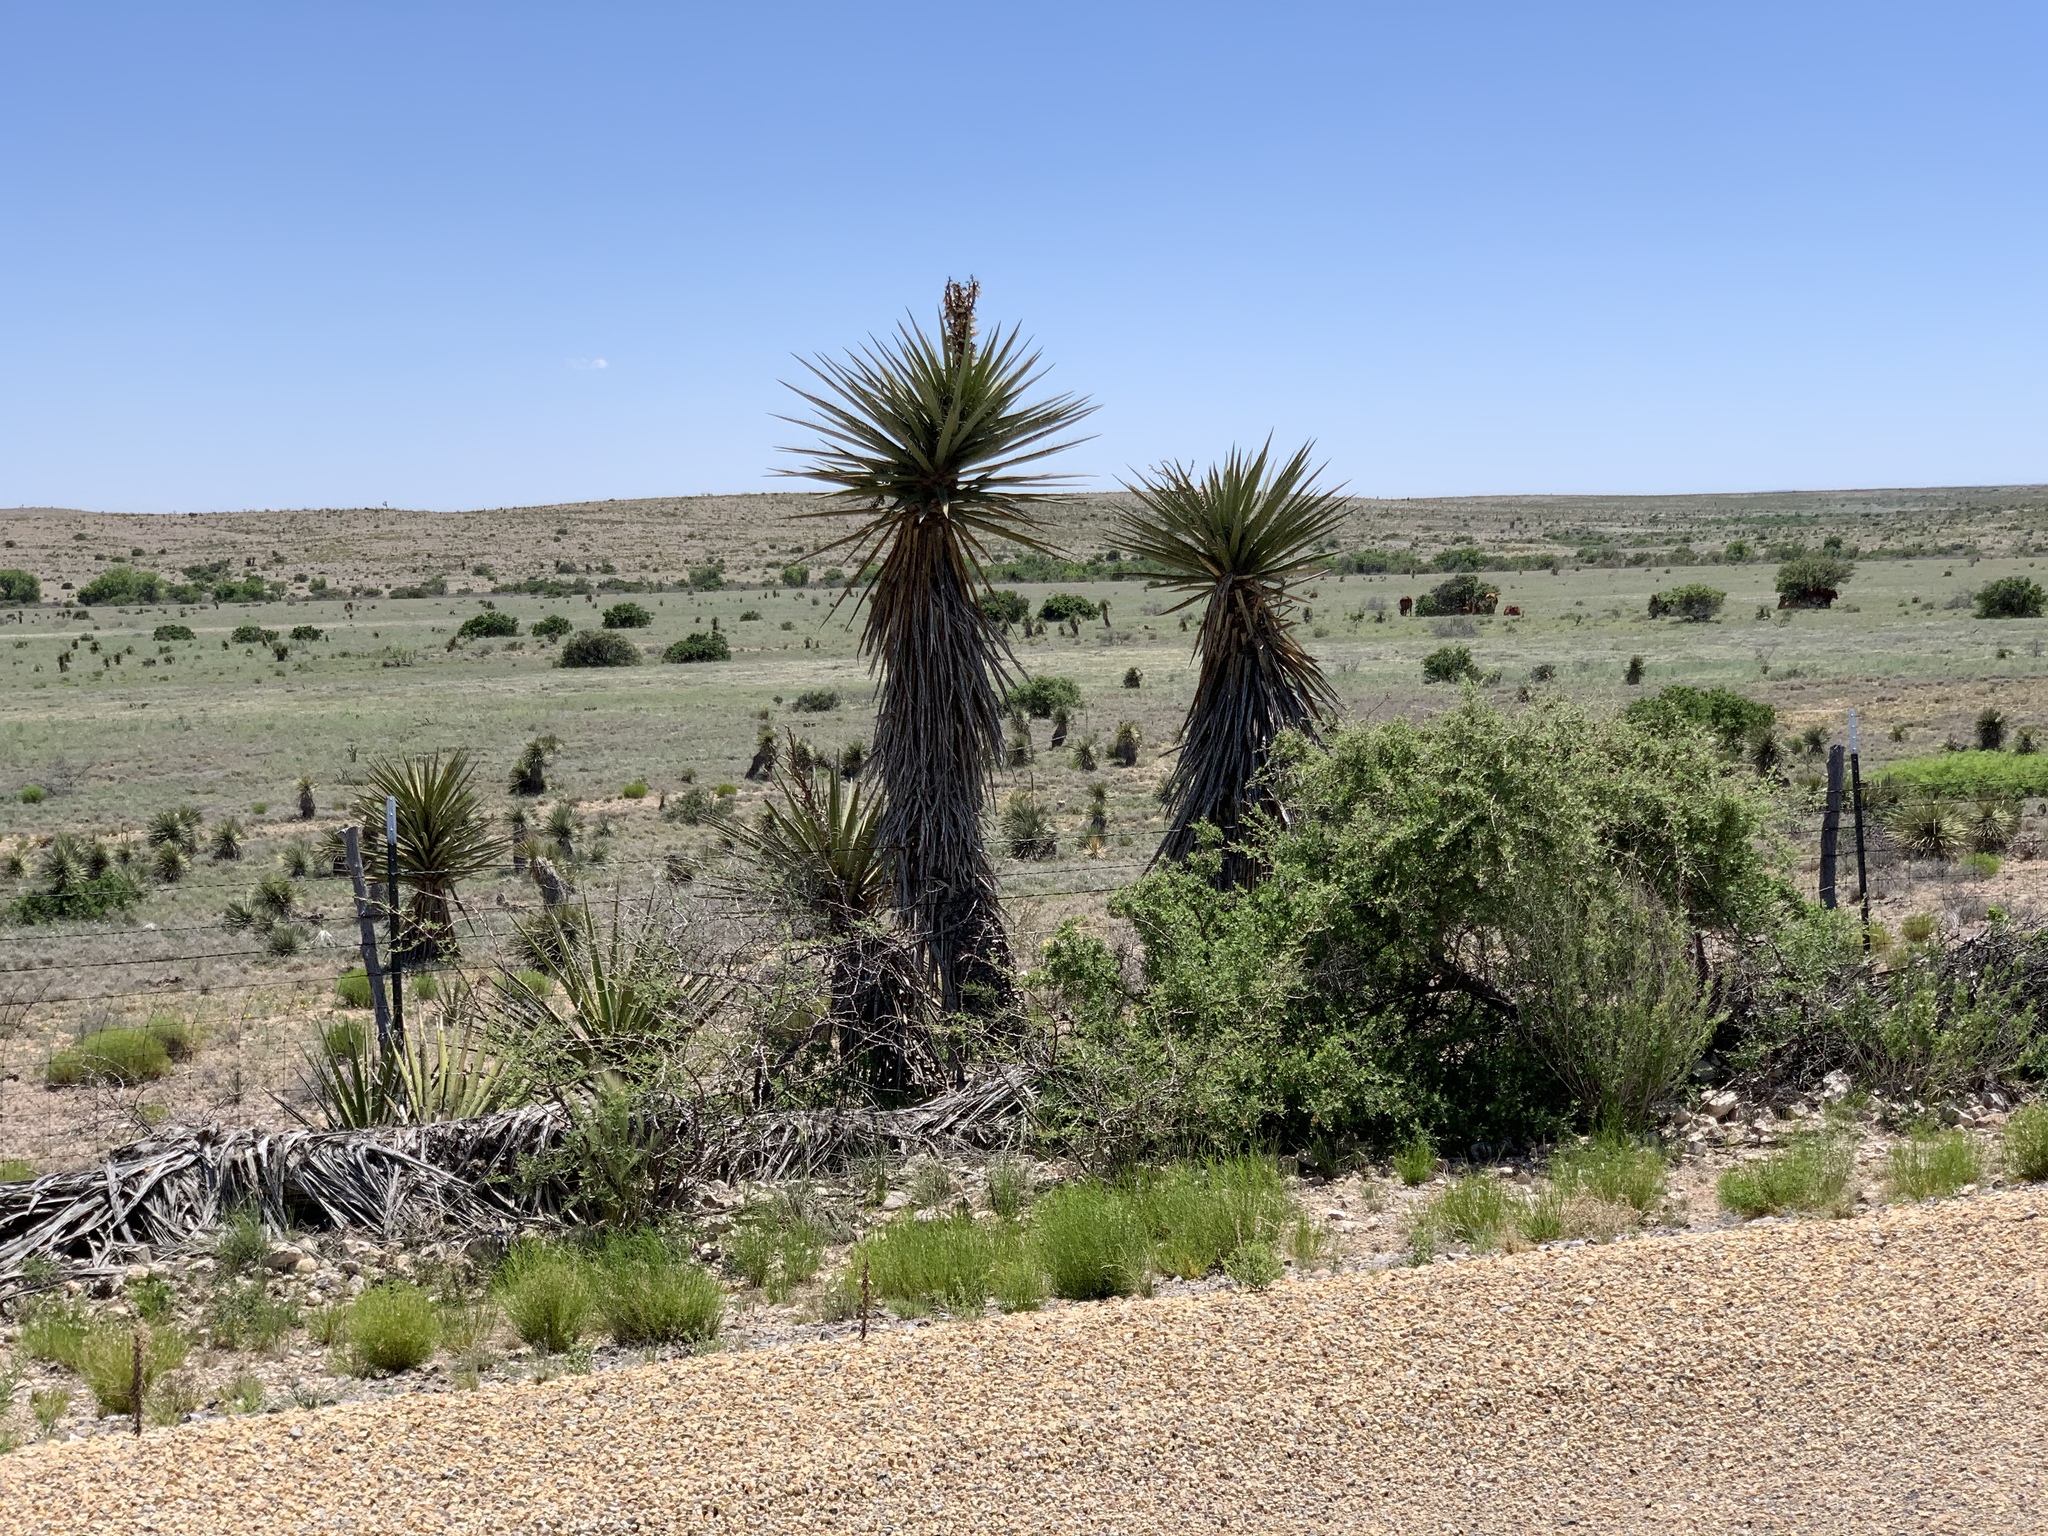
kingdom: Plantae
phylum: Tracheophyta
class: Liliopsida
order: Asparagales
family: Asparagaceae
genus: Yucca
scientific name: Yucca treculiana
